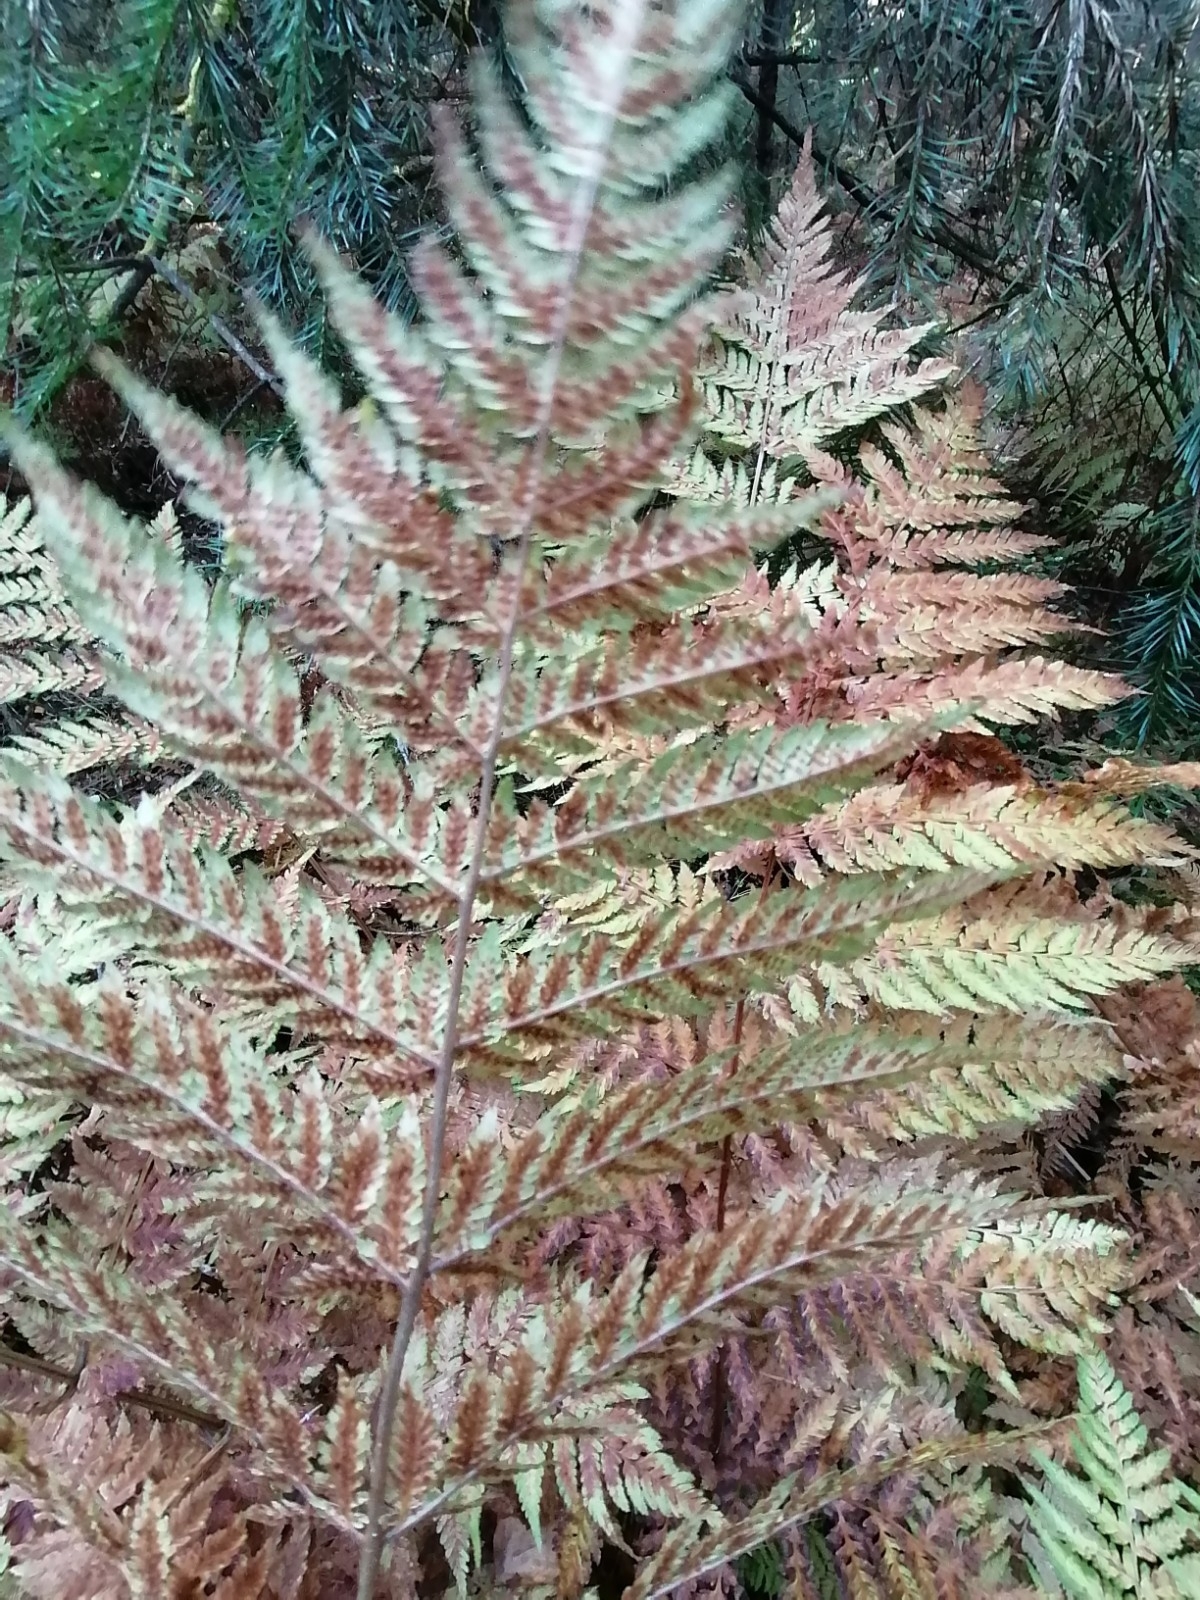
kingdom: Plantae
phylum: Tracheophyta
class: Polypodiopsida
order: Polypodiales
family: Dryopteridaceae
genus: Dryopteris
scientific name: Dryopteris expansa
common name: Northern buckler fern
